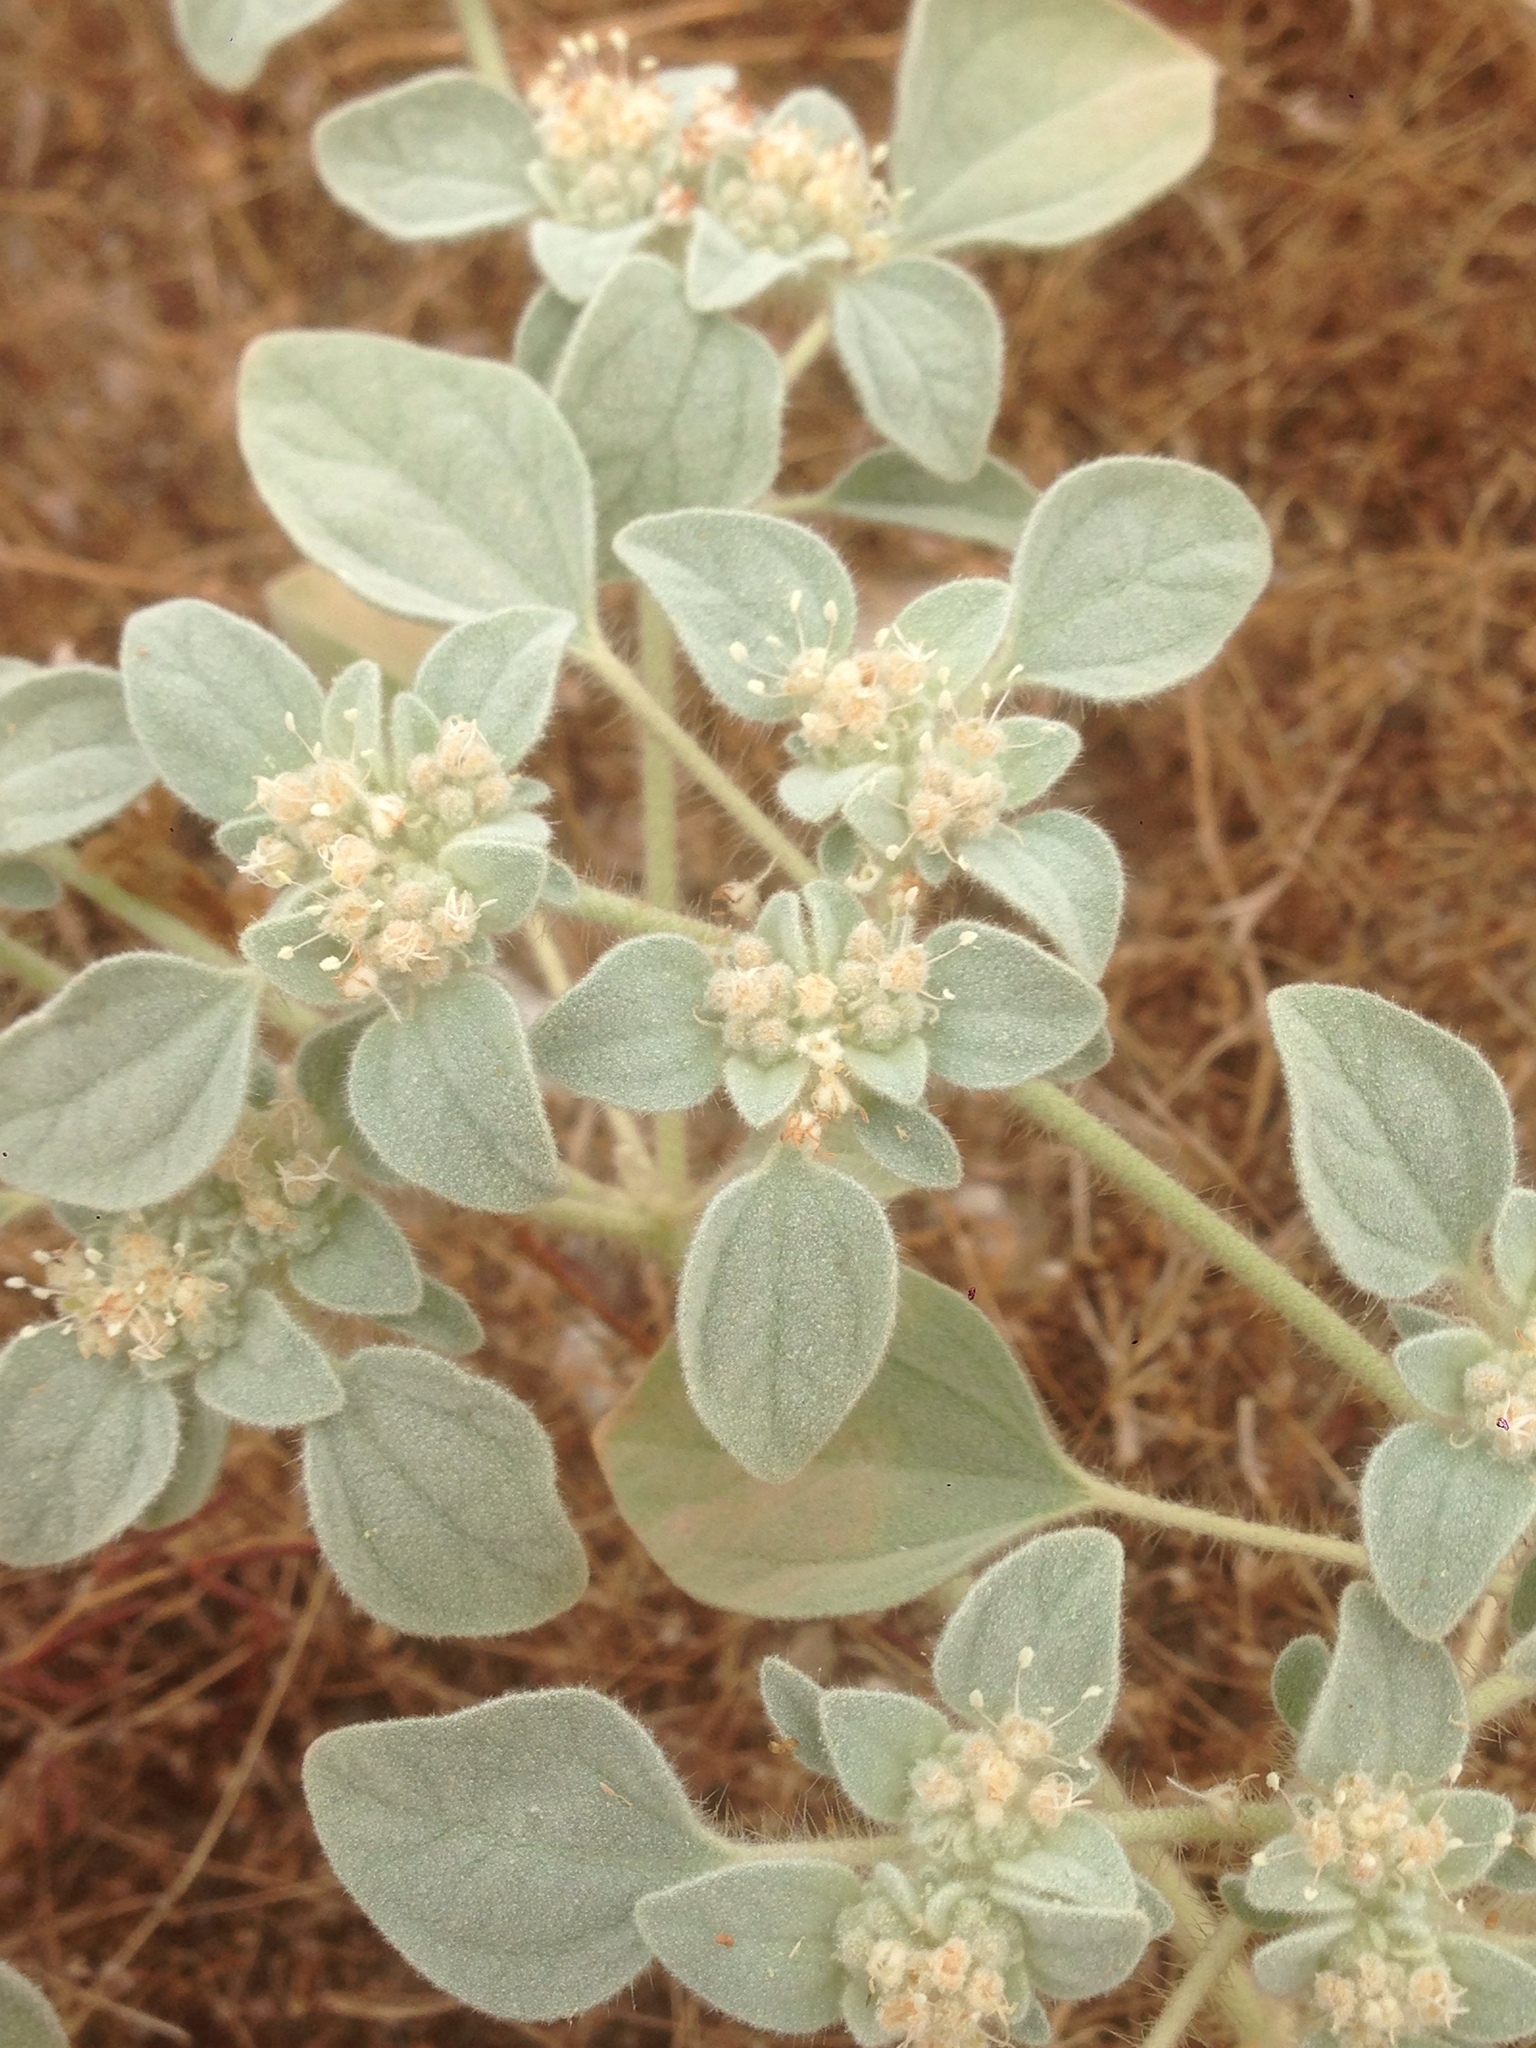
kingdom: Plantae
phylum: Tracheophyta
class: Magnoliopsida
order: Malpighiales
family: Euphorbiaceae
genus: Croton
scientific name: Croton setiger
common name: Dove weed
